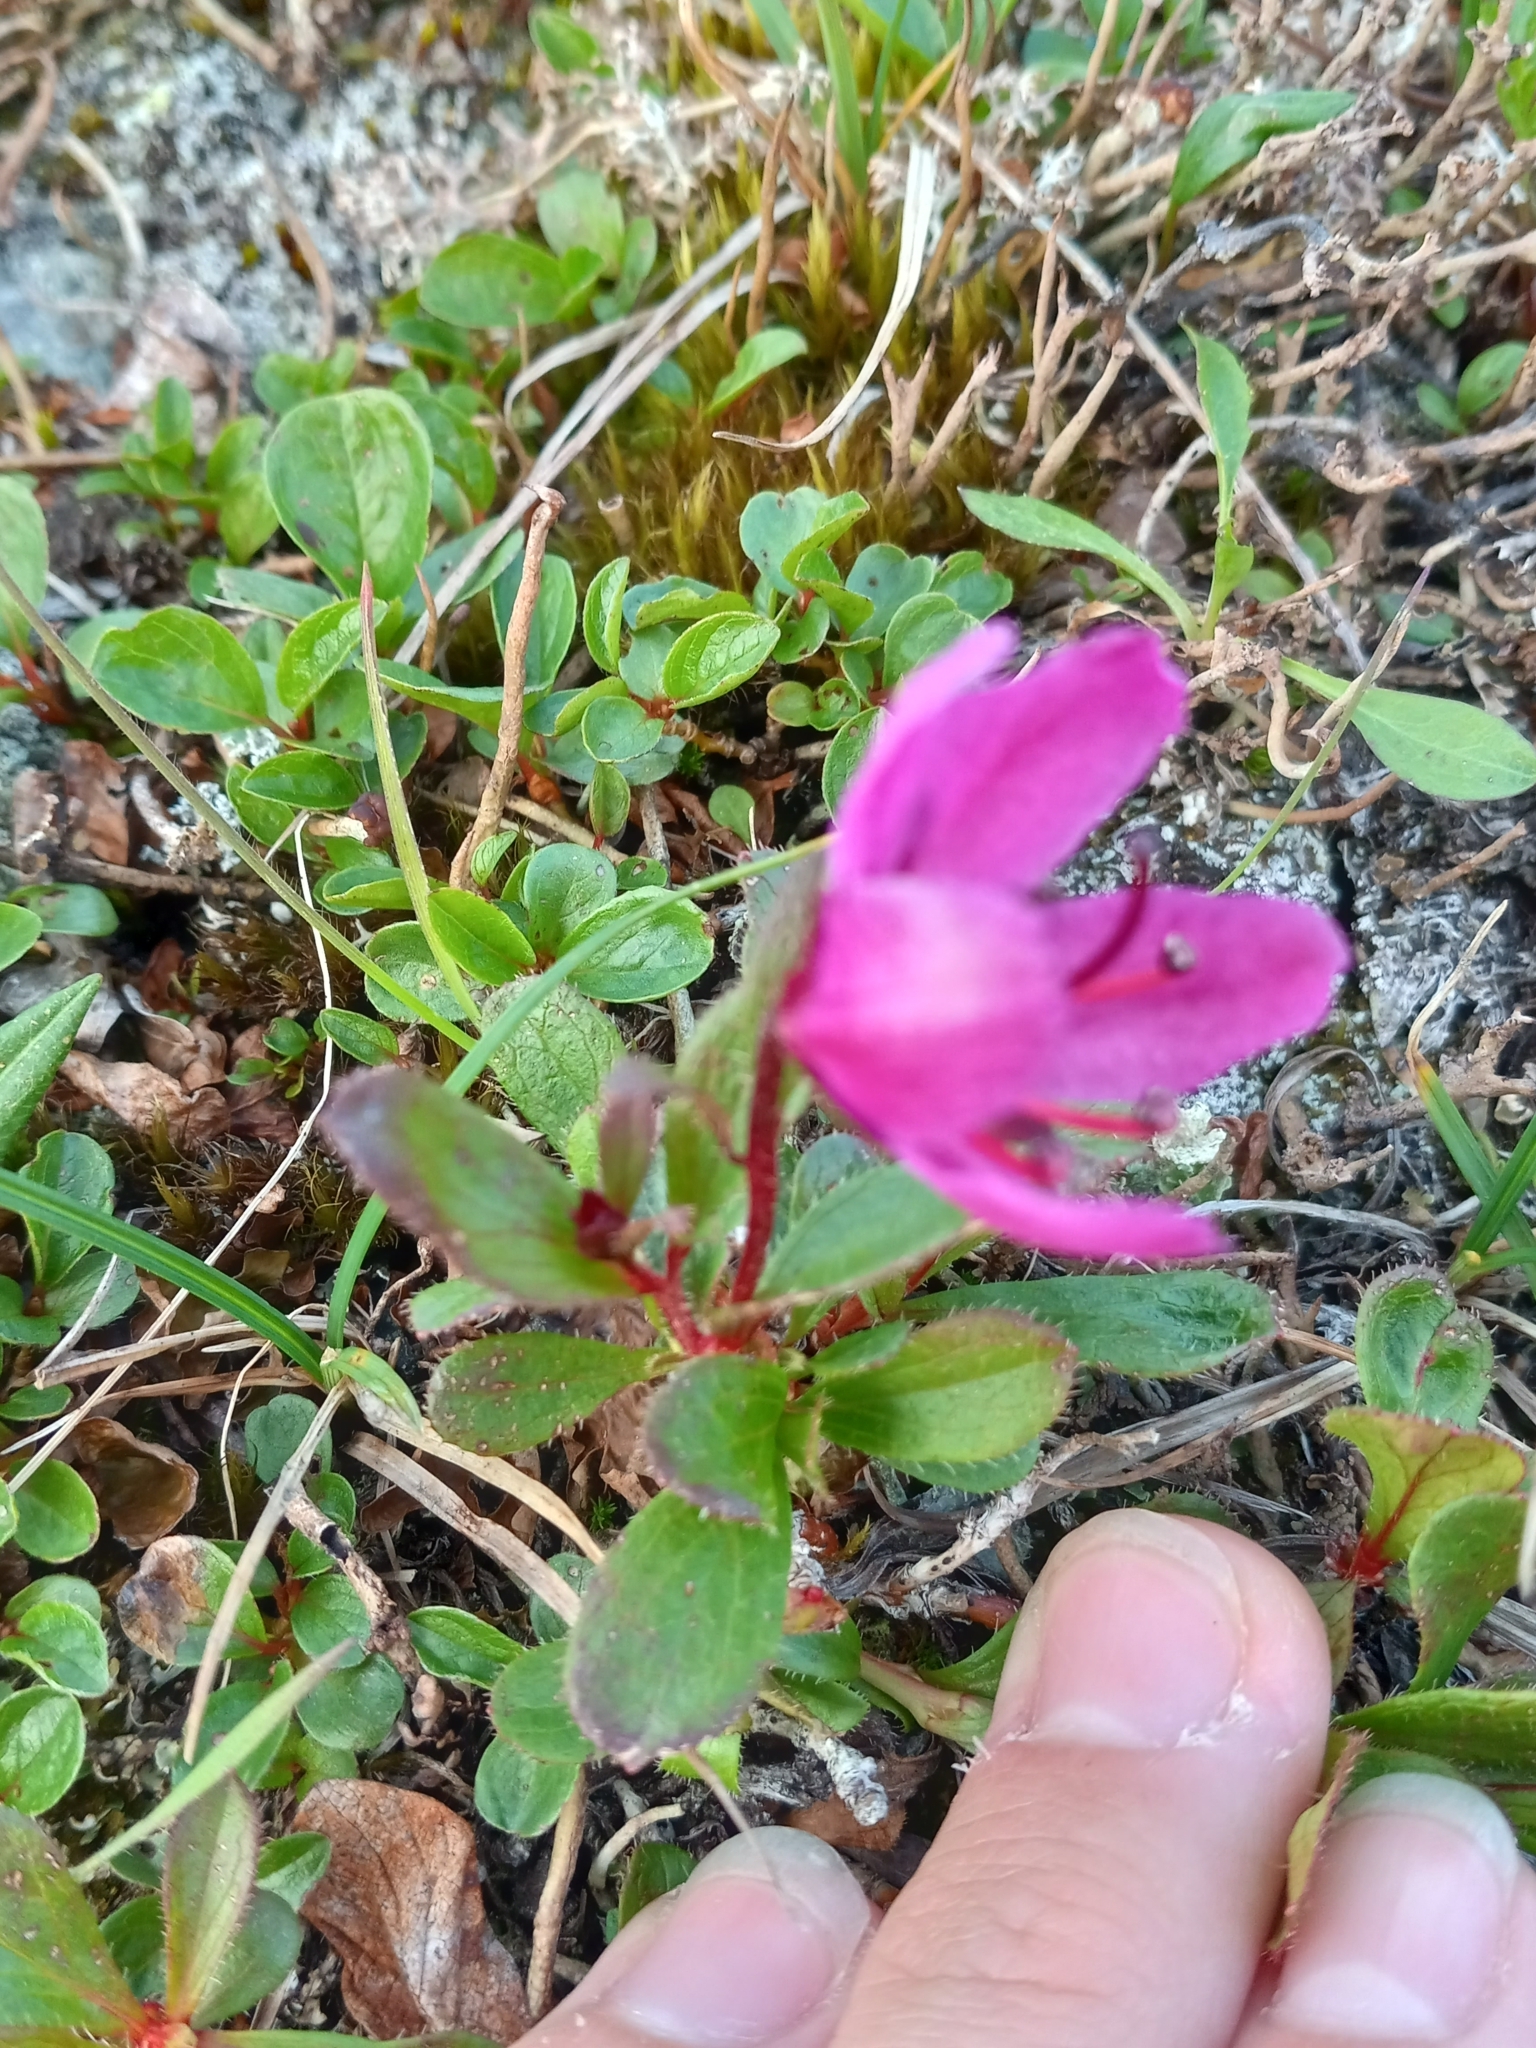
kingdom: Plantae
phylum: Tracheophyta
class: Magnoliopsida
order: Ericales
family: Ericaceae
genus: Rhododendron
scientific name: Rhododendron glandulosum
